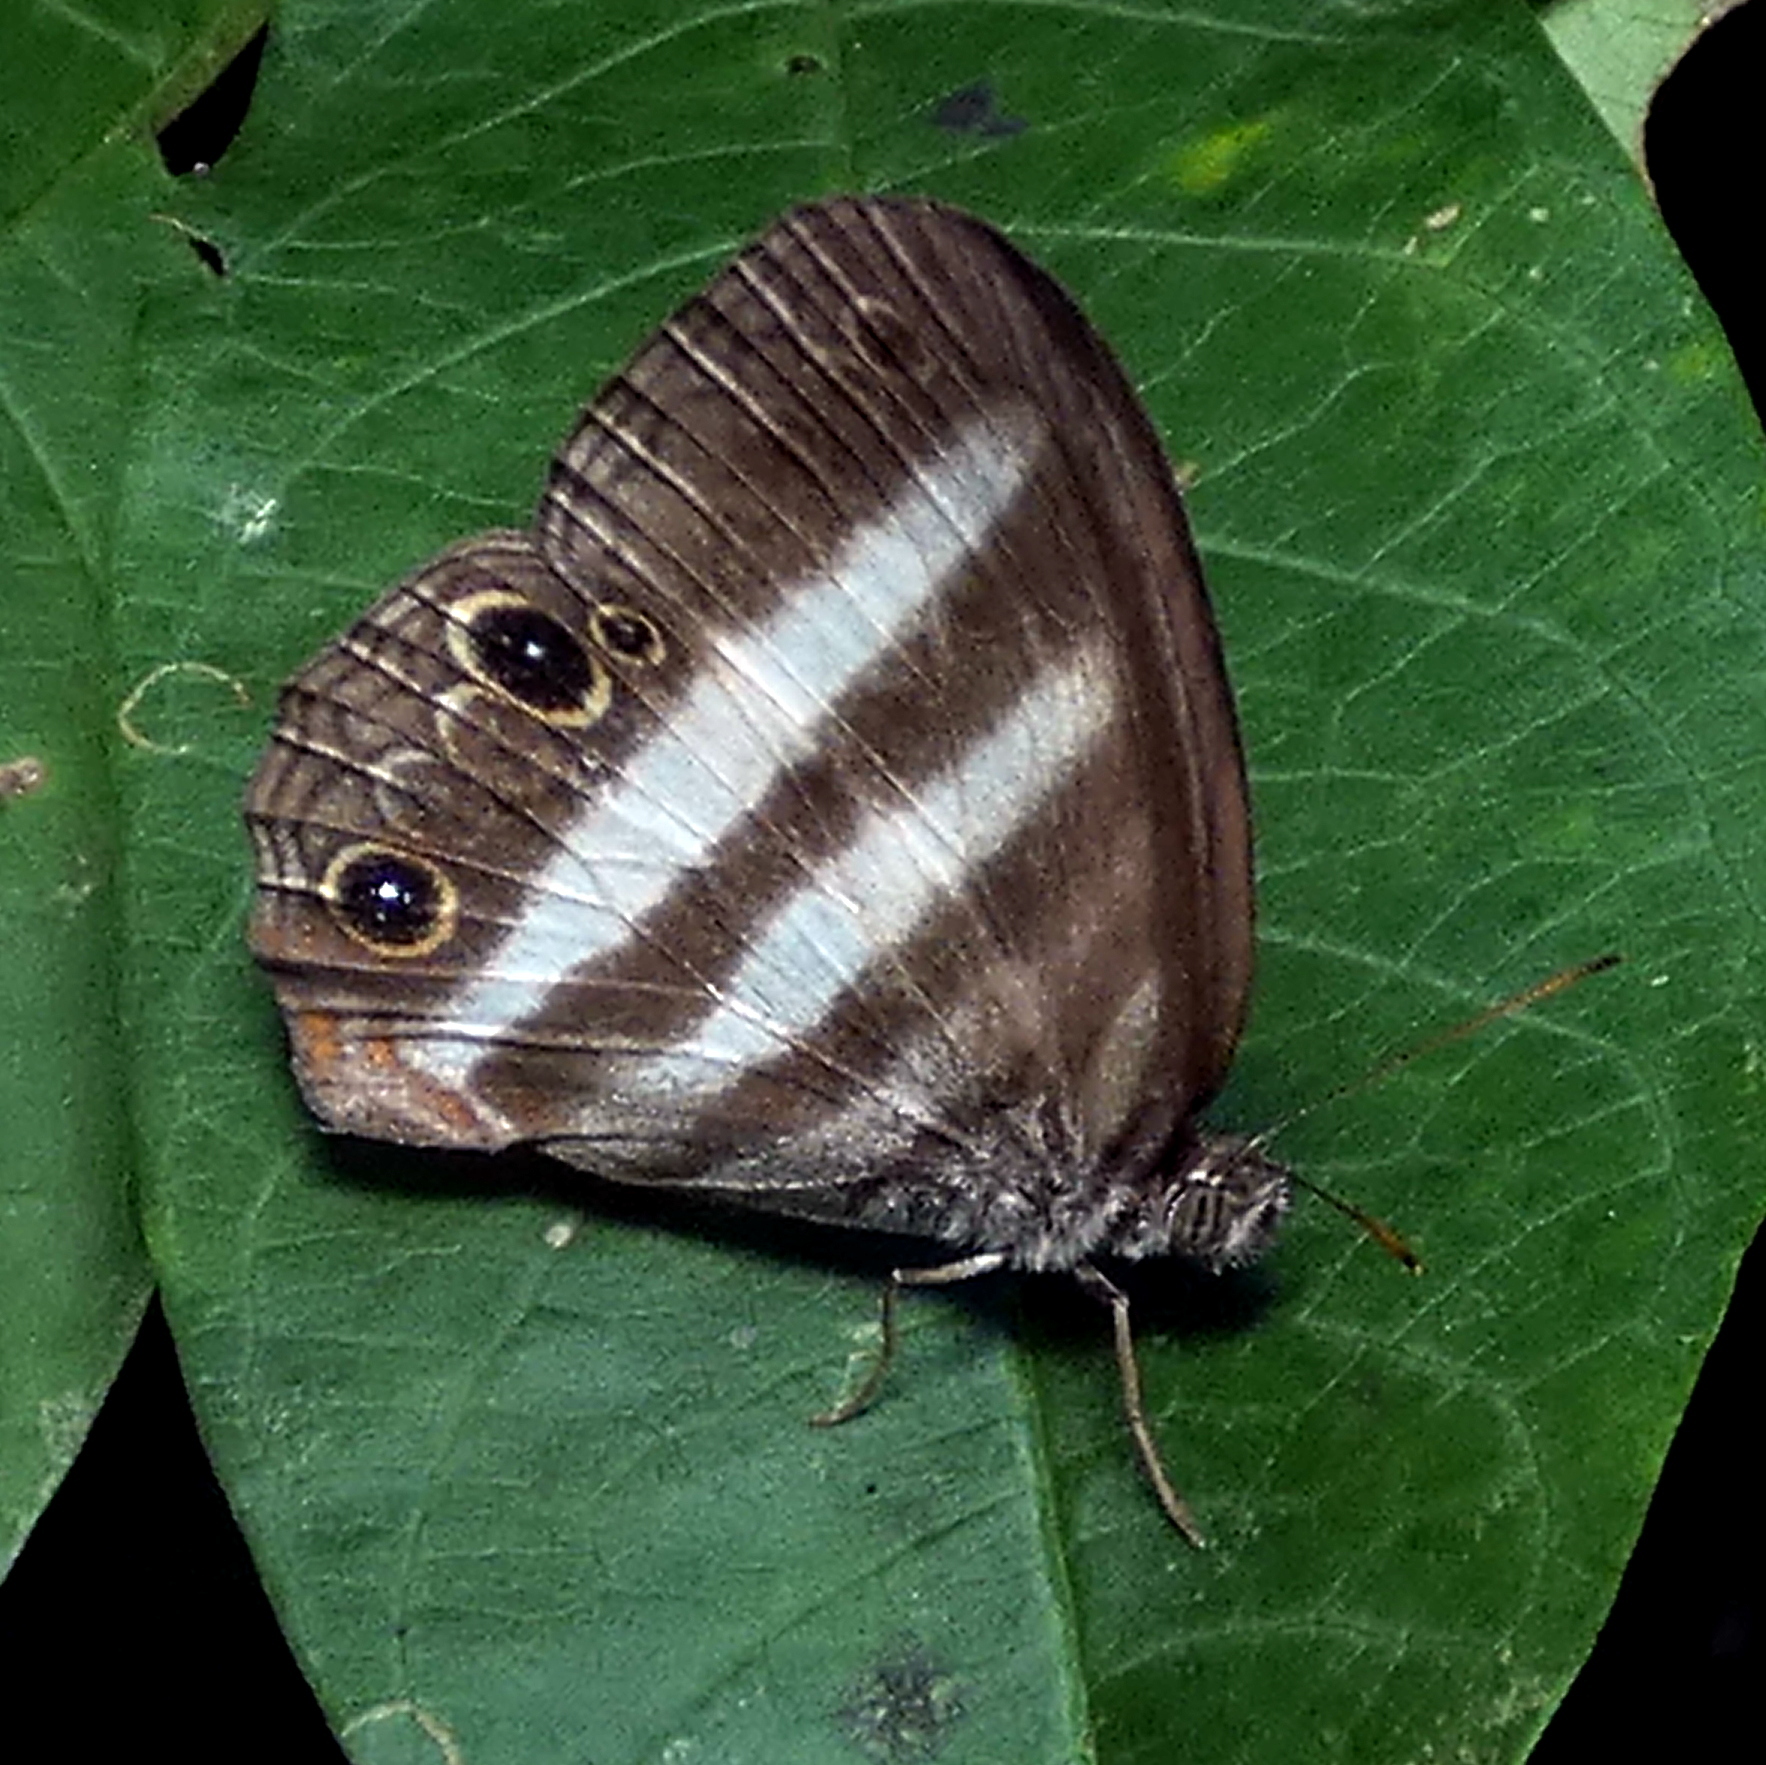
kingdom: Animalia
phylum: Arthropoda
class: Insecta
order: Lepidoptera
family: Nymphalidae
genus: Pareuptychia
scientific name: Pareuptychia hesione
